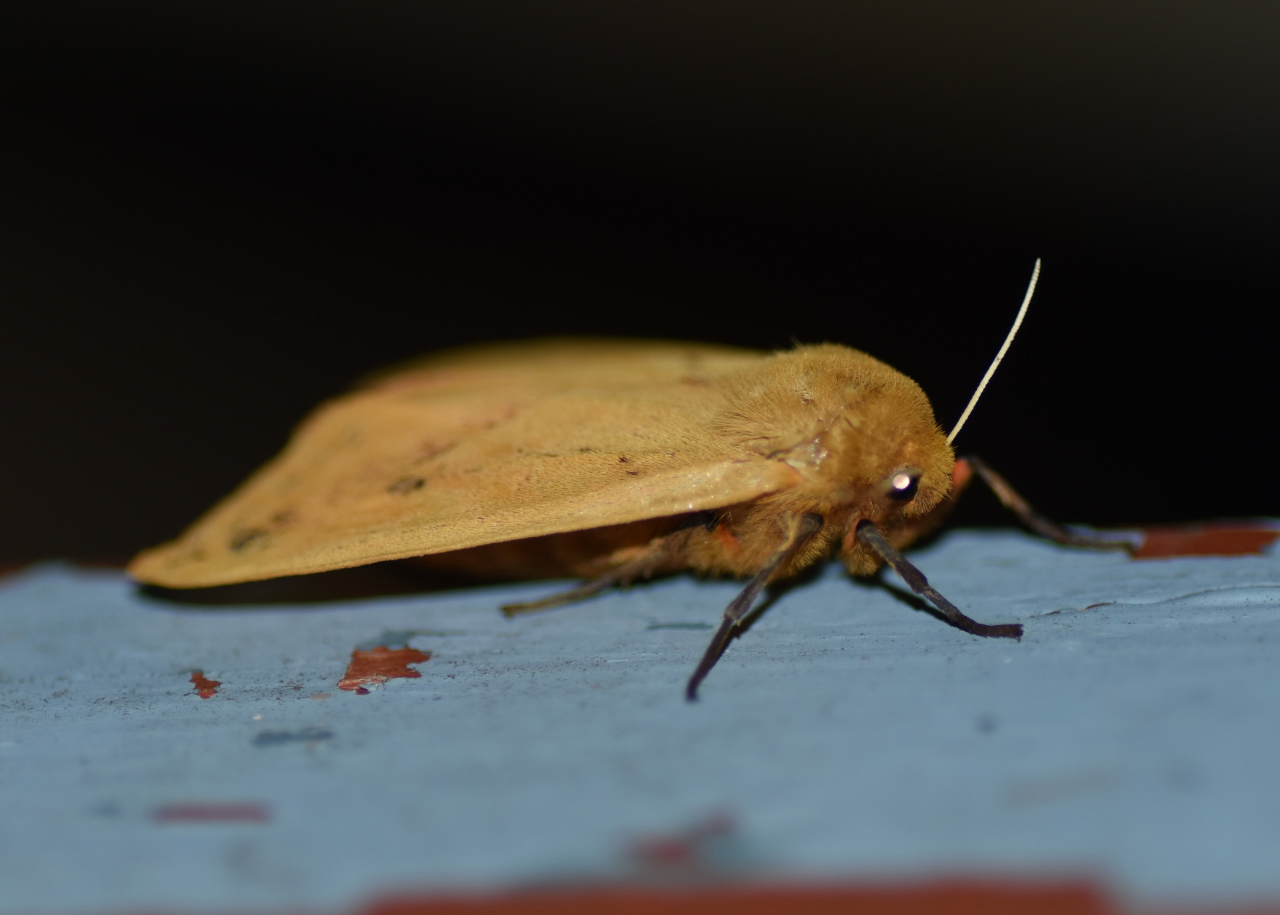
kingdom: Animalia
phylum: Arthropoda
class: Insecta
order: Lepidoptera
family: Erebidae
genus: Pyrrharctia
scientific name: Pyrrharctia isabella
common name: Isabella tiger moth
